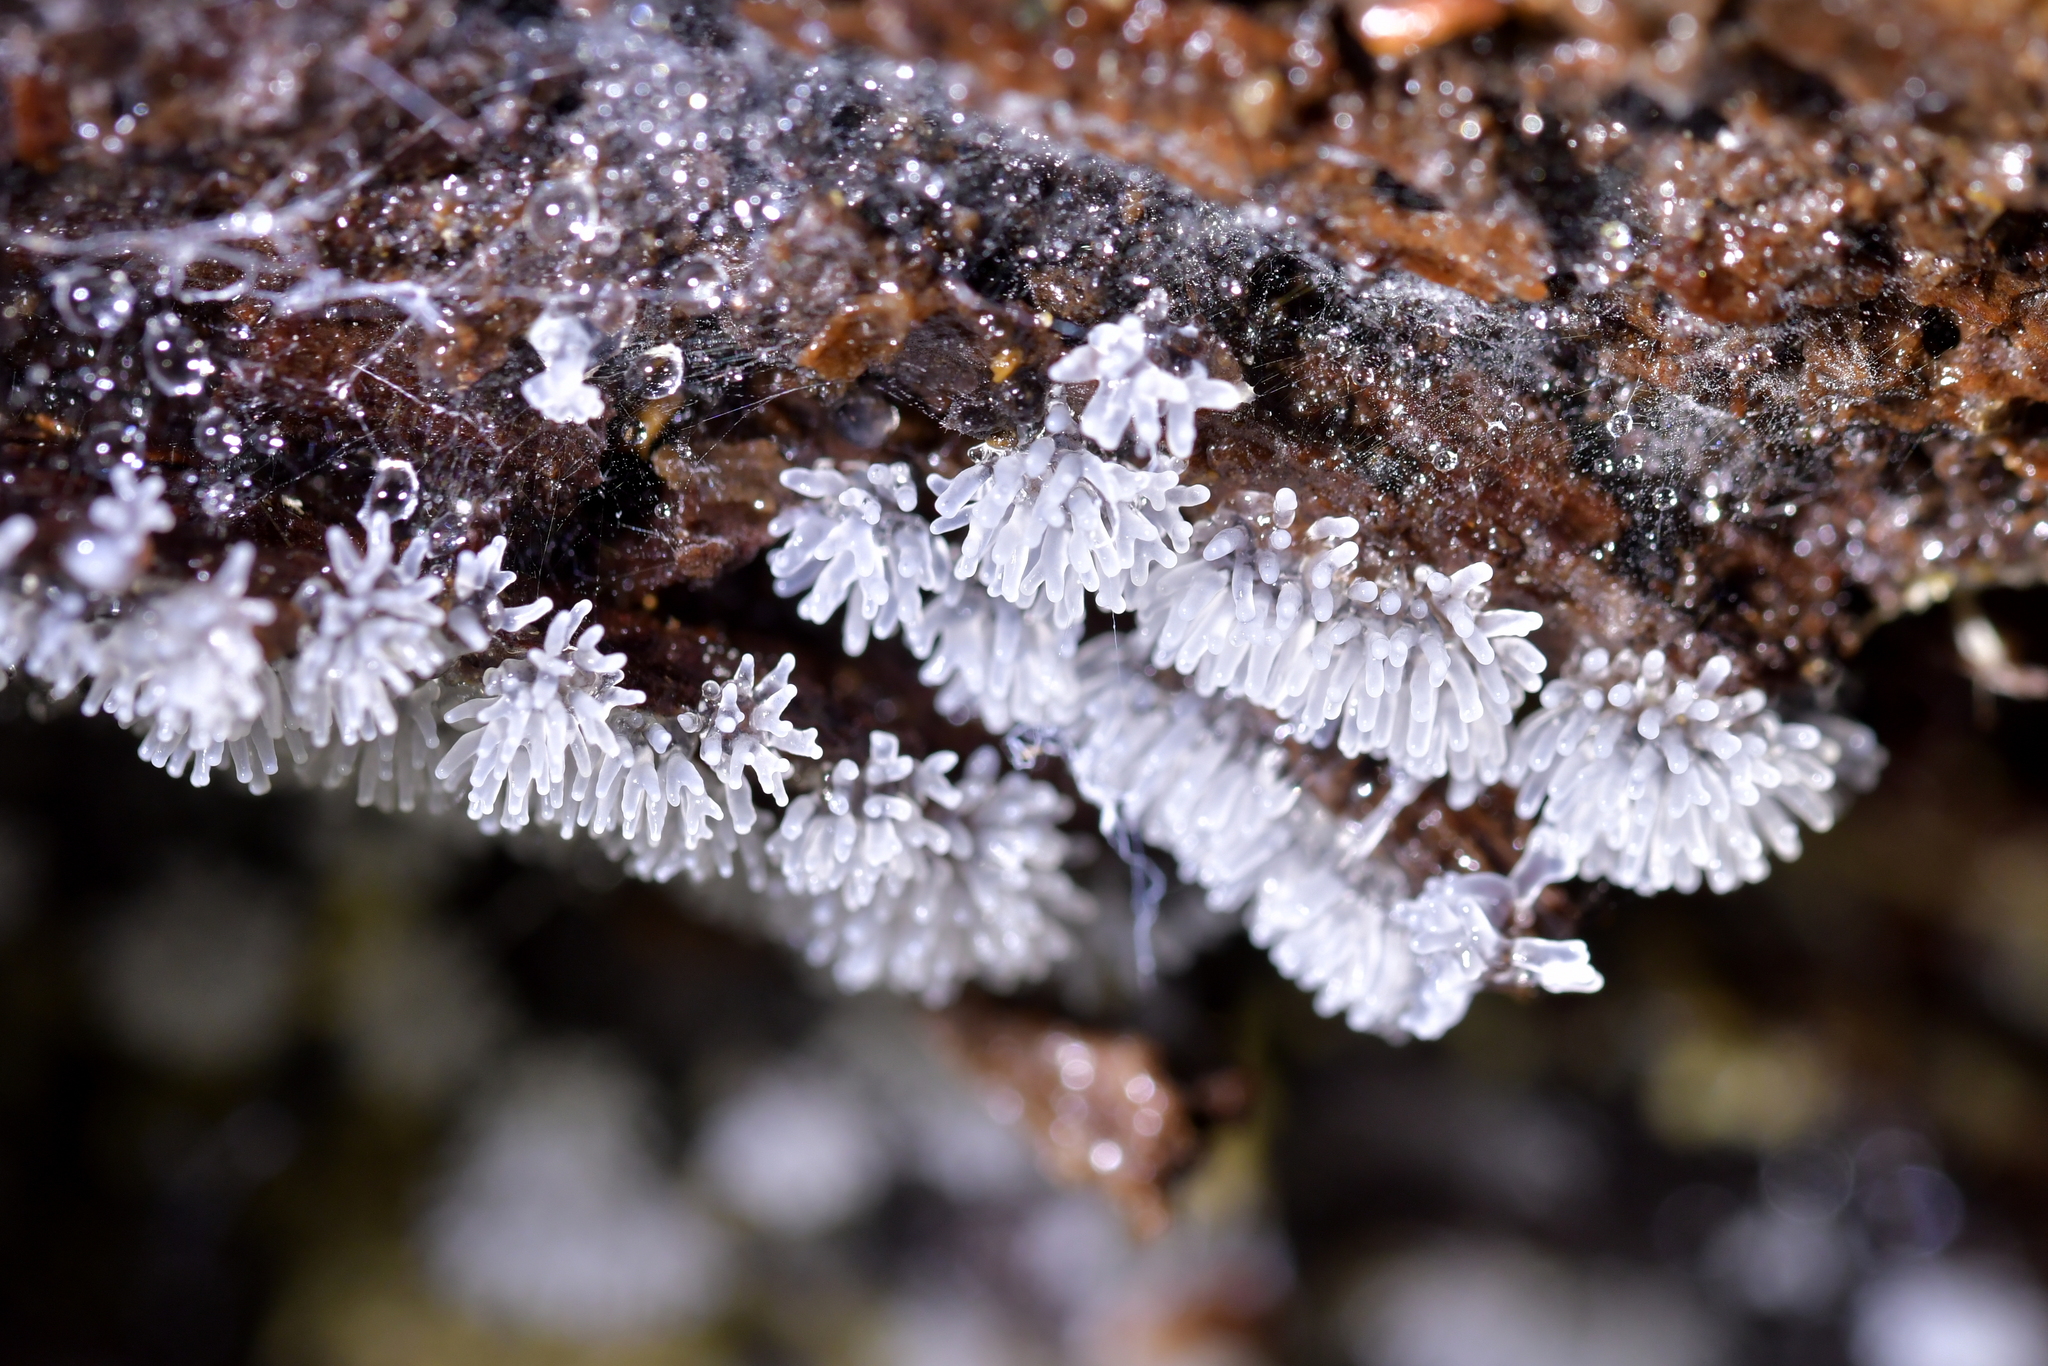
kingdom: Protozoa
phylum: Mycetozoa
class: Protosteliomycetes
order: Ceratiomyxales
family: Ceratiomyxaceae
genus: Ceratiomyxa
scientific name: Ceratiomyxa fruticulosa
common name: Honeycomb coral slime mold
